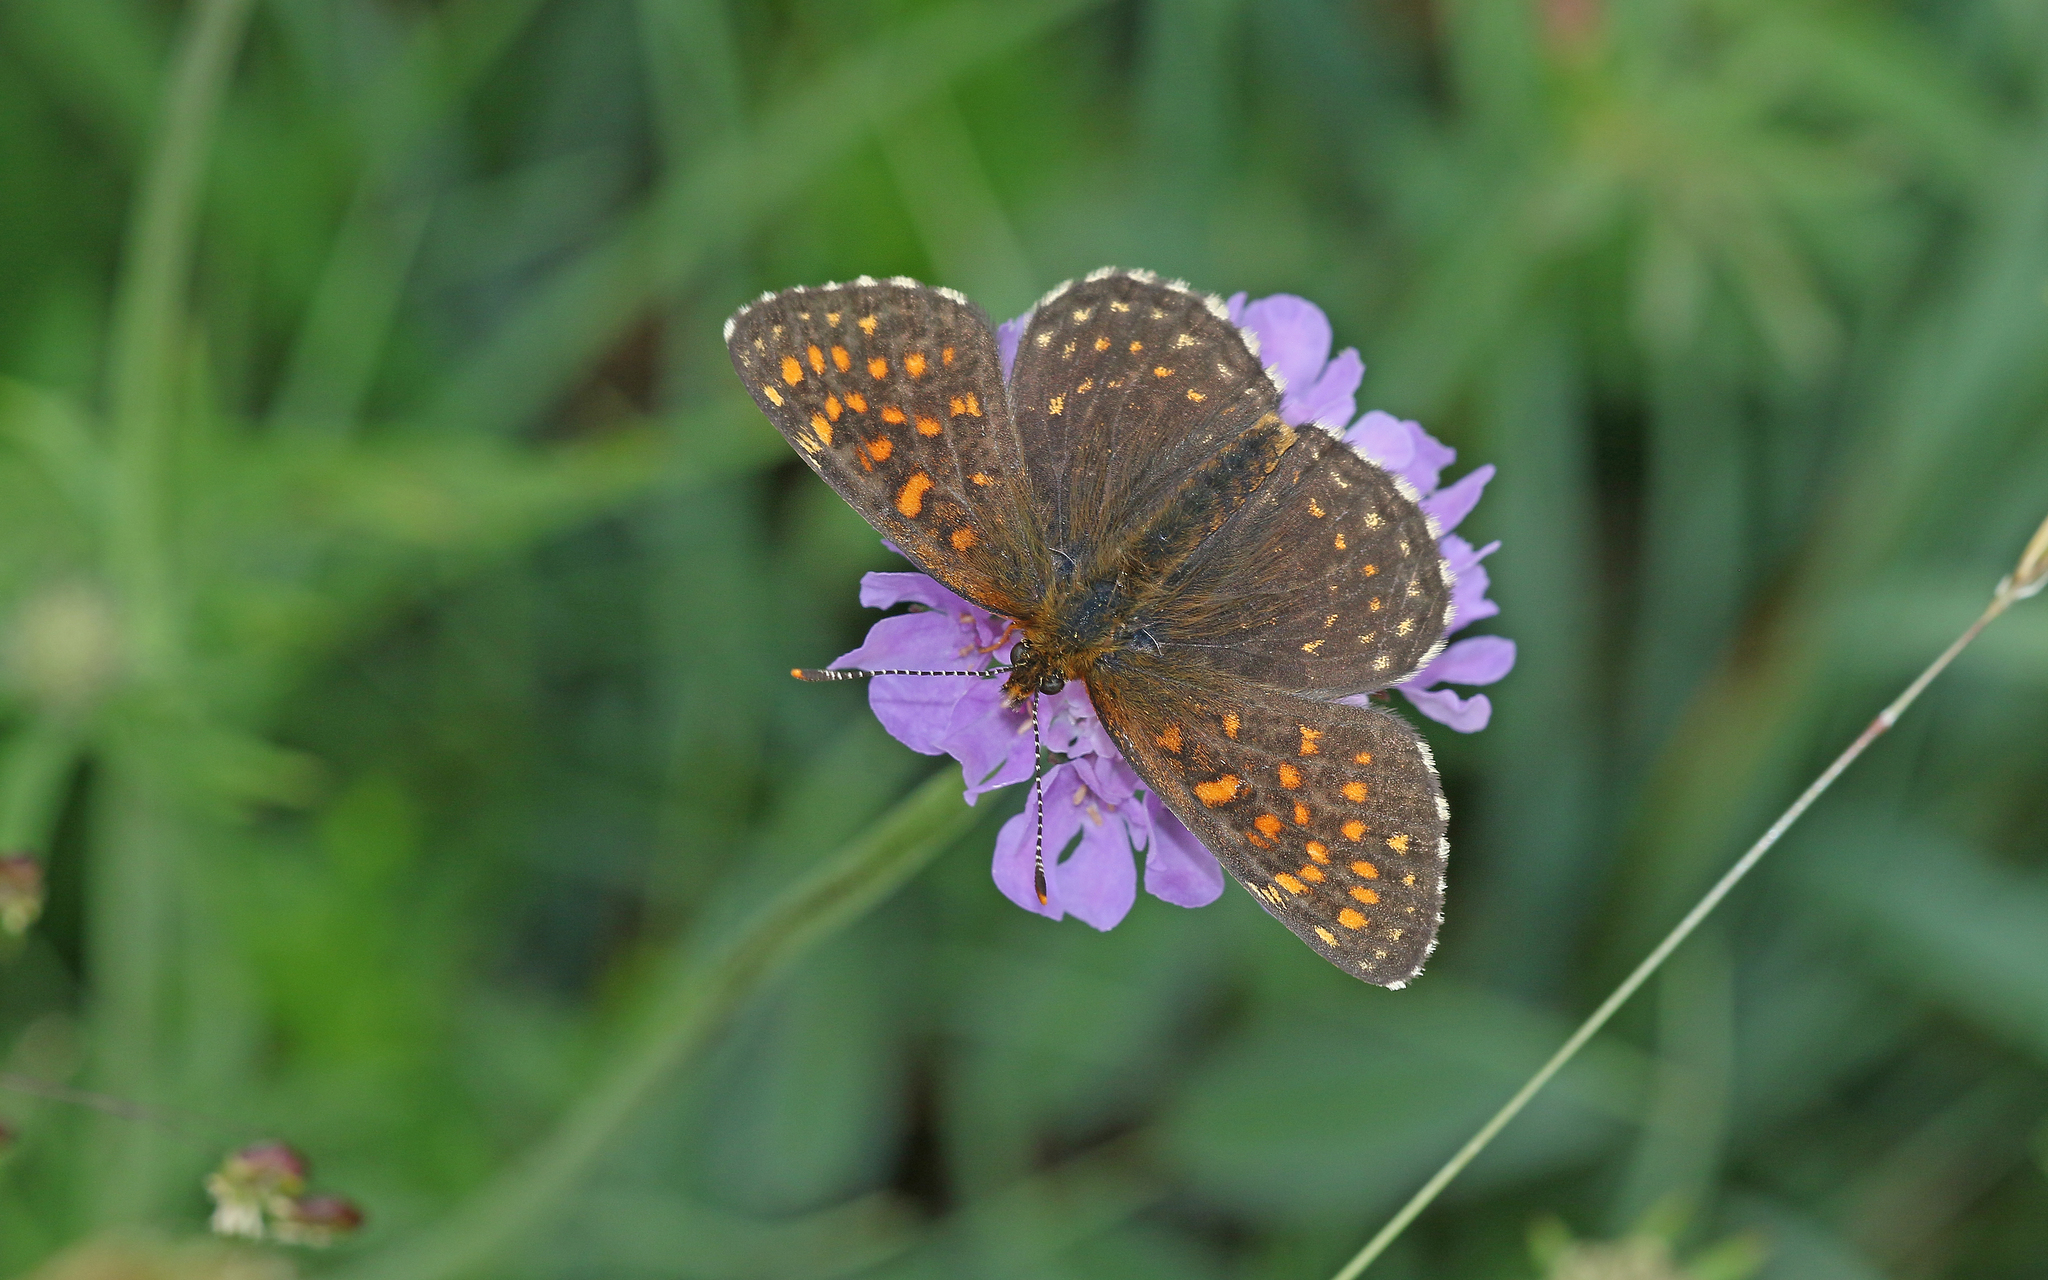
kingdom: Animalia
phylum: Arthropoda
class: Insecta
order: Lepidoptera
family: Nymphalidae
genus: Melitaea
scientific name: Melitaea diamina
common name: False heath fritillary
